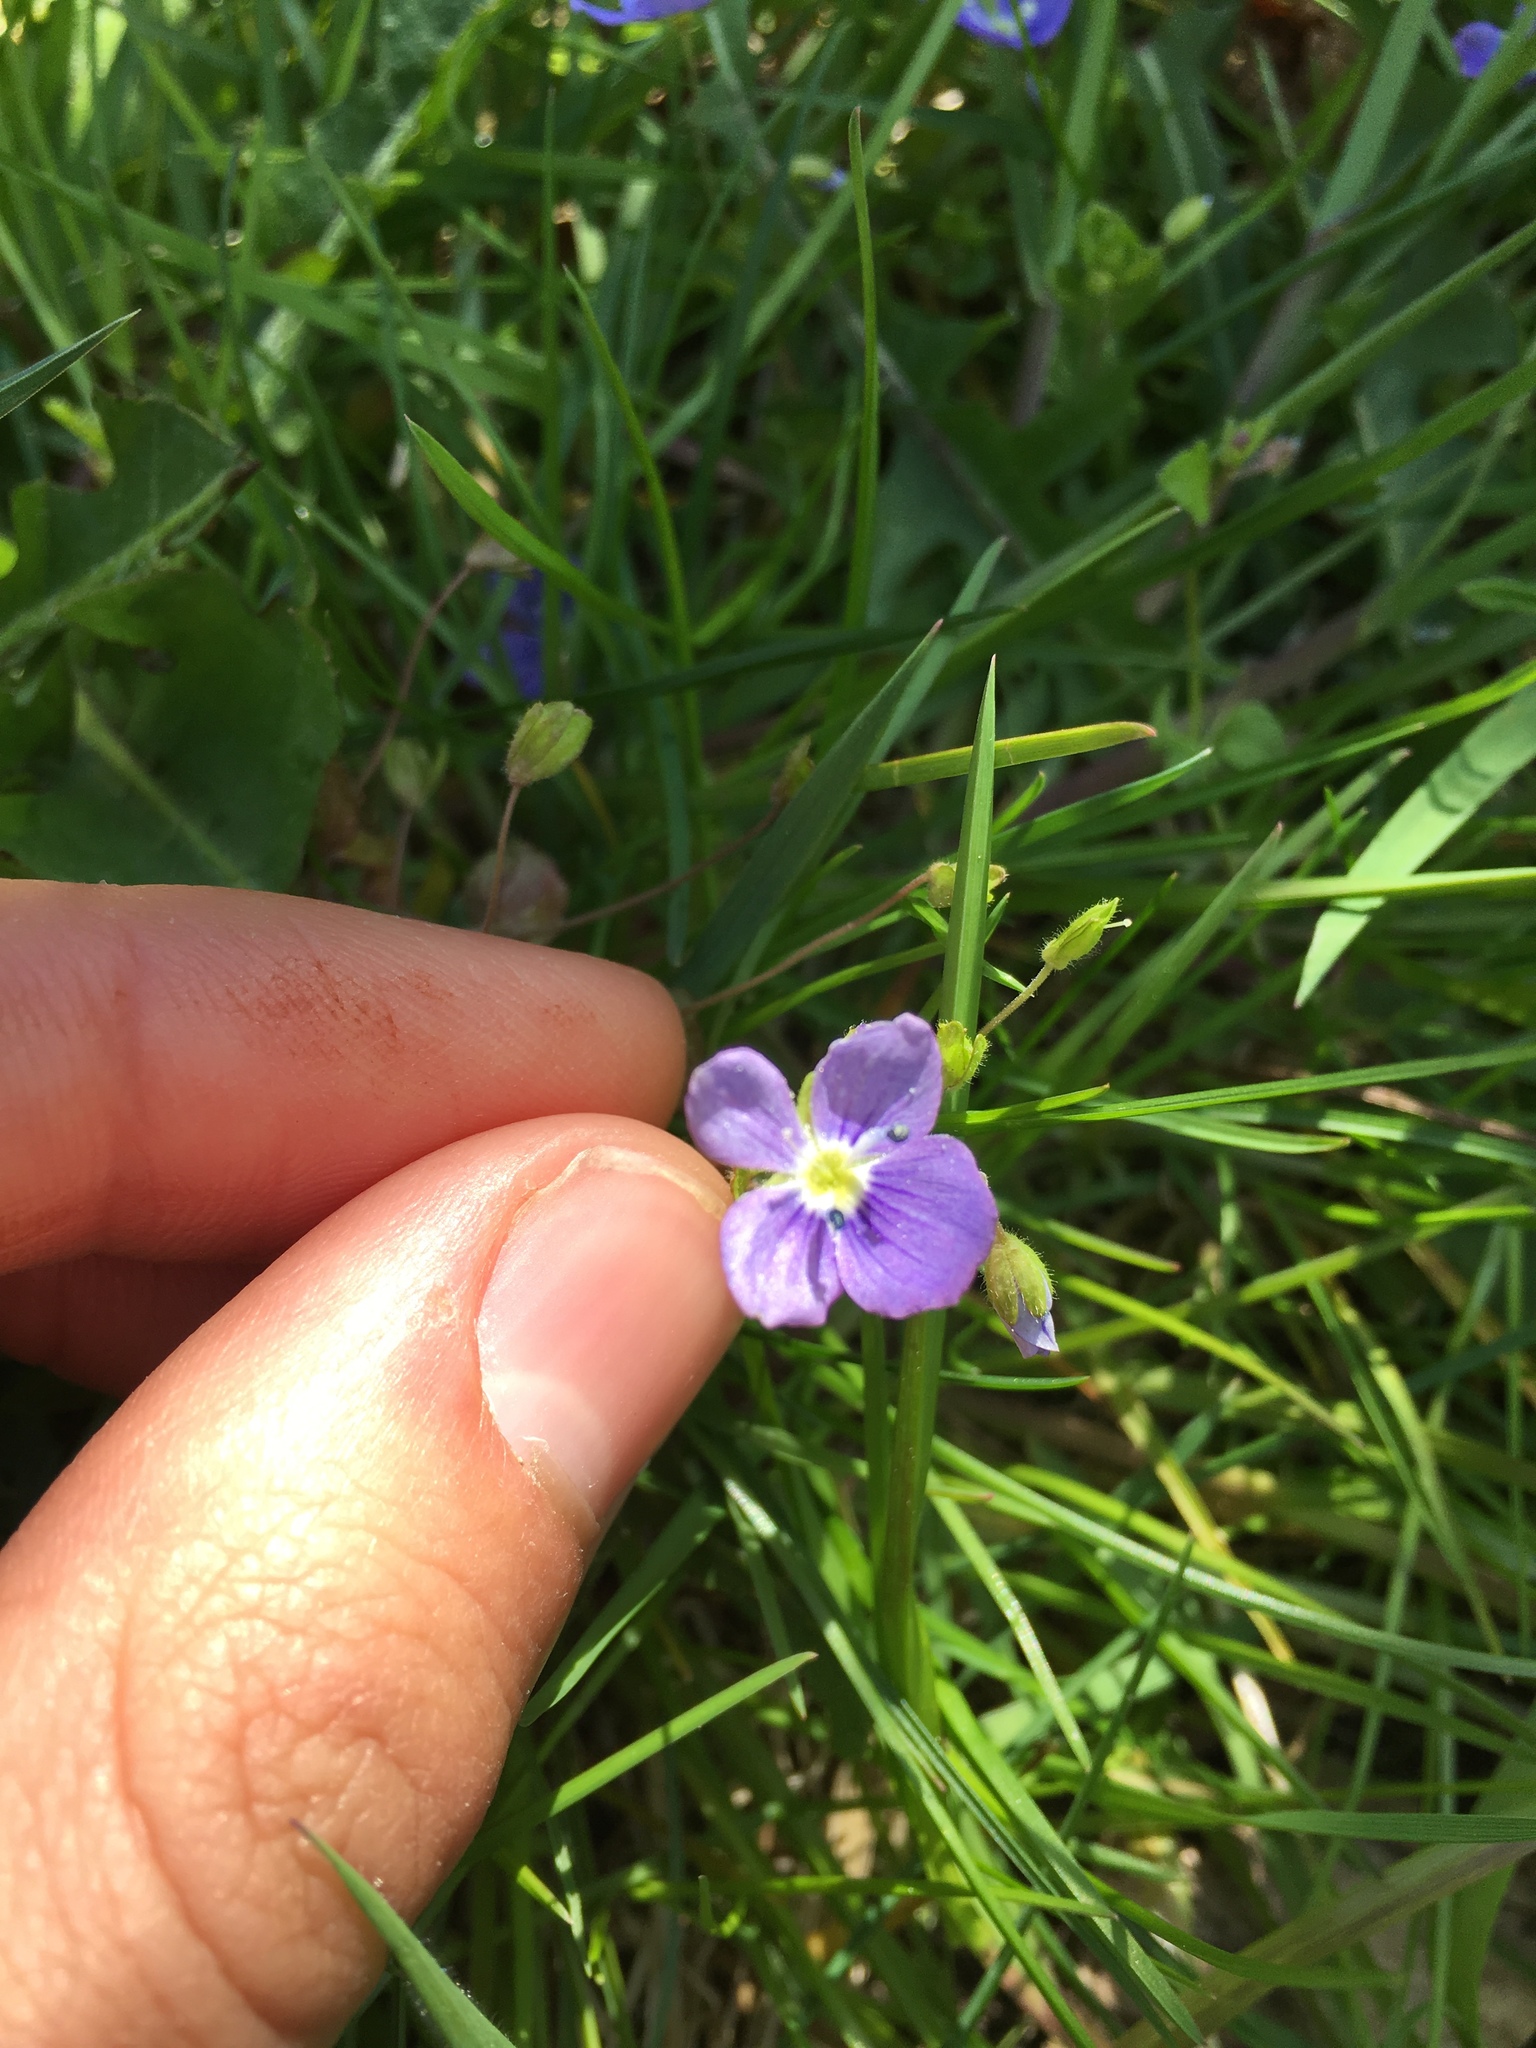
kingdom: Plantae
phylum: Tracheophyta
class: Magnoliopsida
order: Lamiales
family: Plantaginaceae
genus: Veronica
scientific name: Veronica filiformis
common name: Slender speedwell
